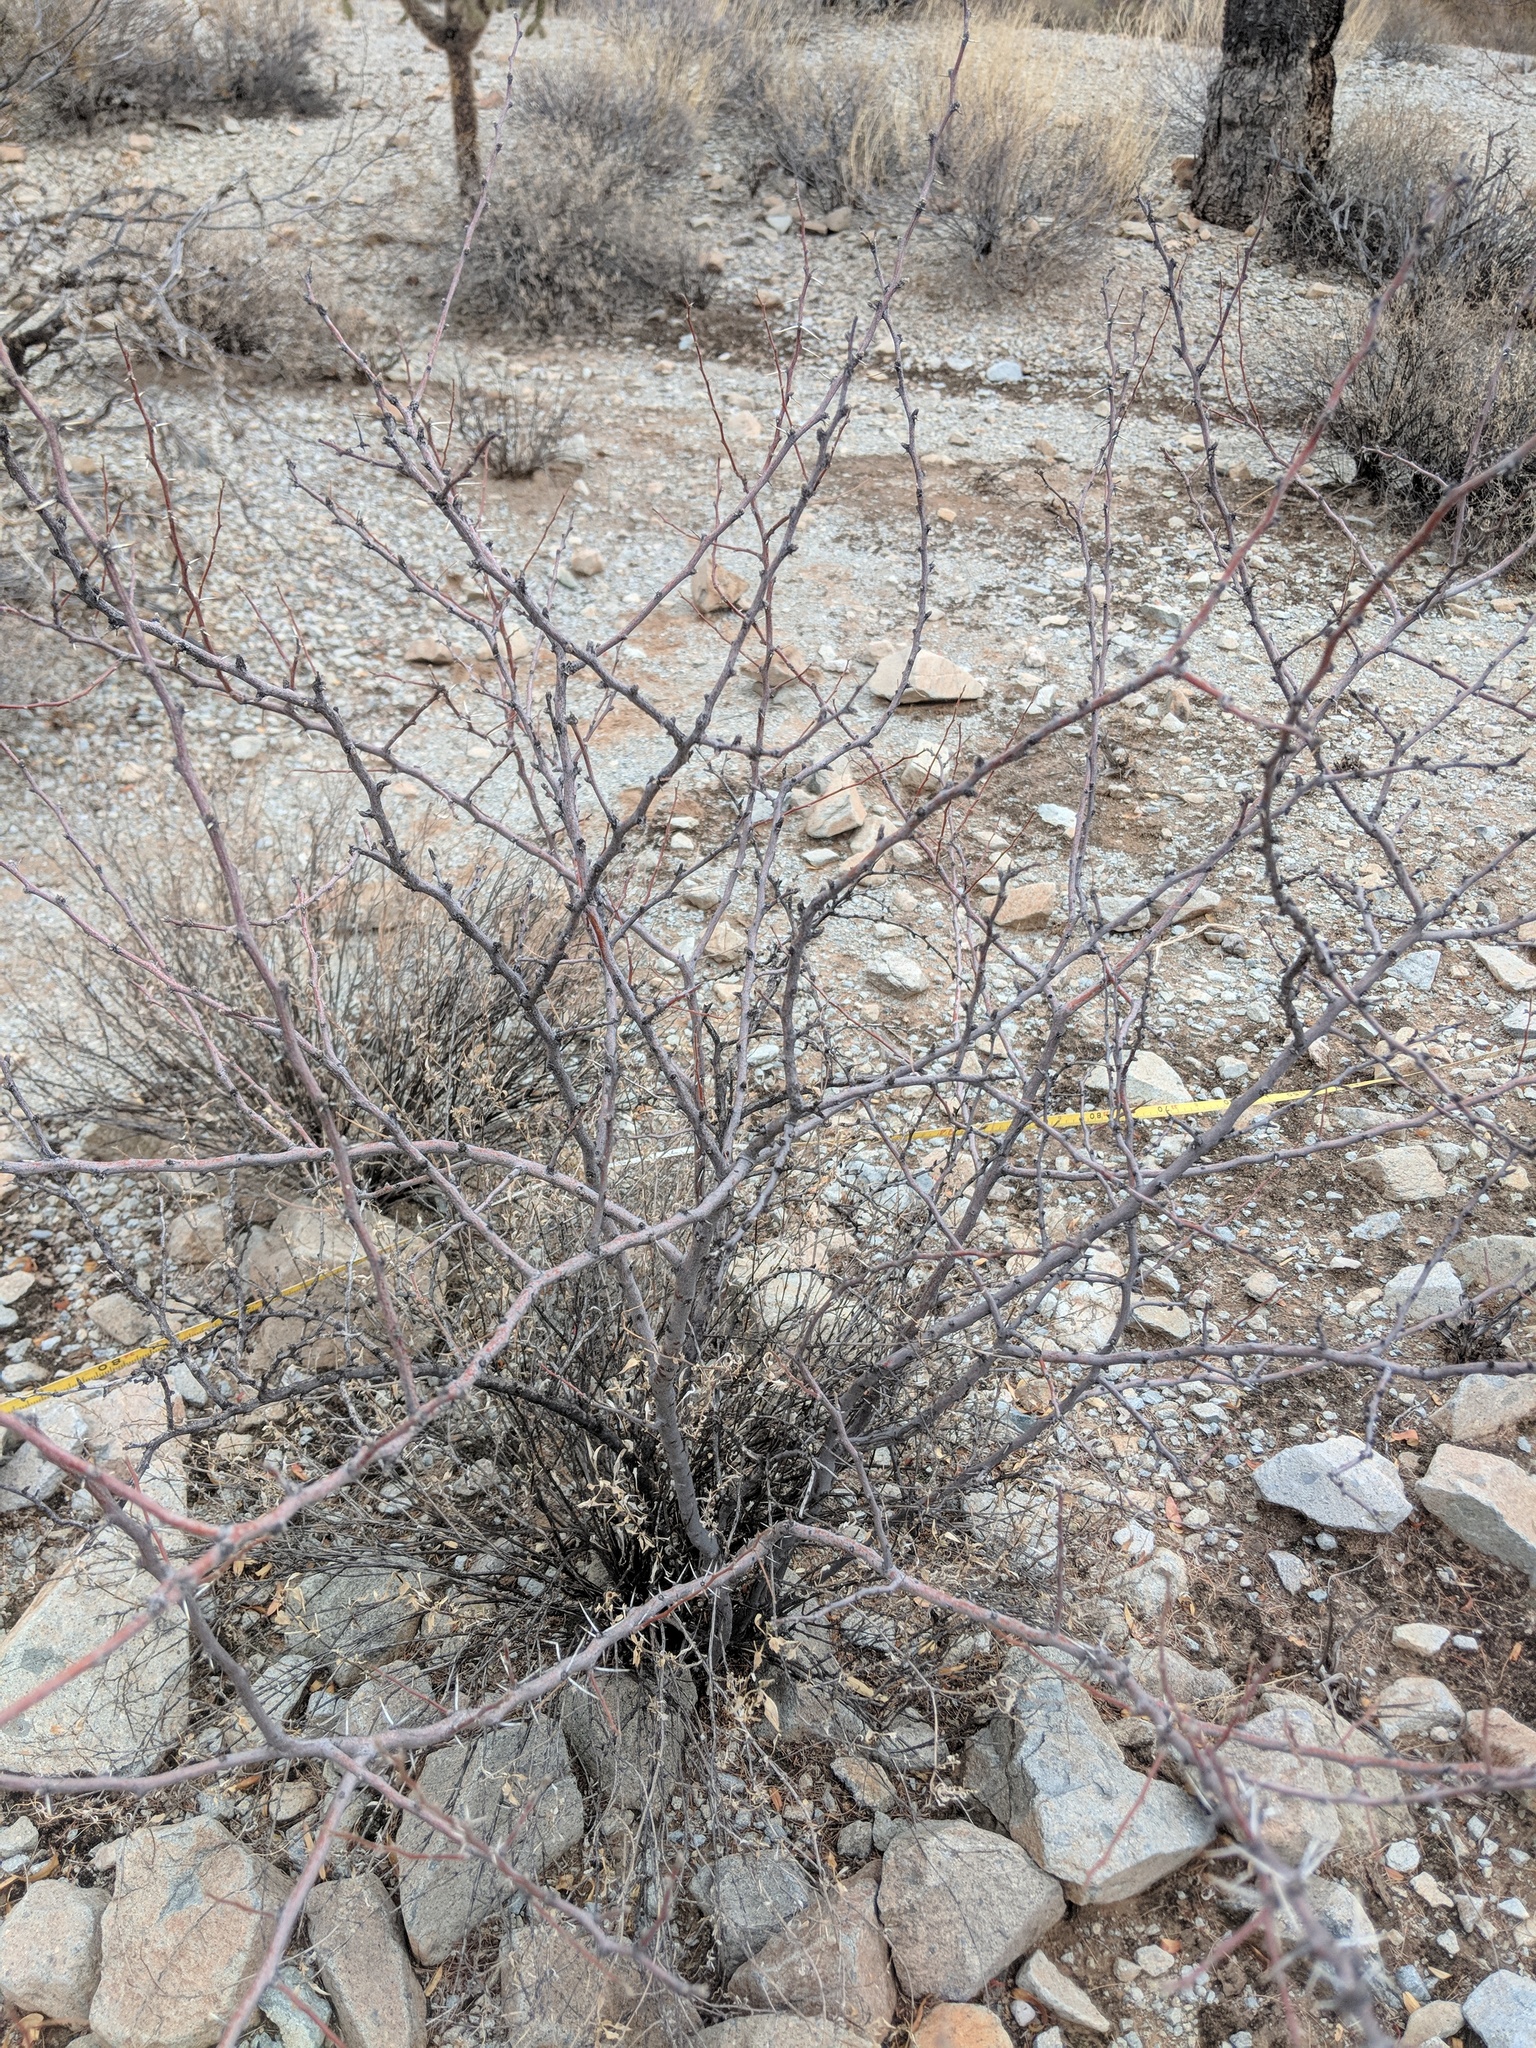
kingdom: Plantae
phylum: Tracheophyta
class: Magnoliopsida
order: Malpighiales
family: Euphorbiaceae
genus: Jatropha
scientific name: Jatropha cuneata
